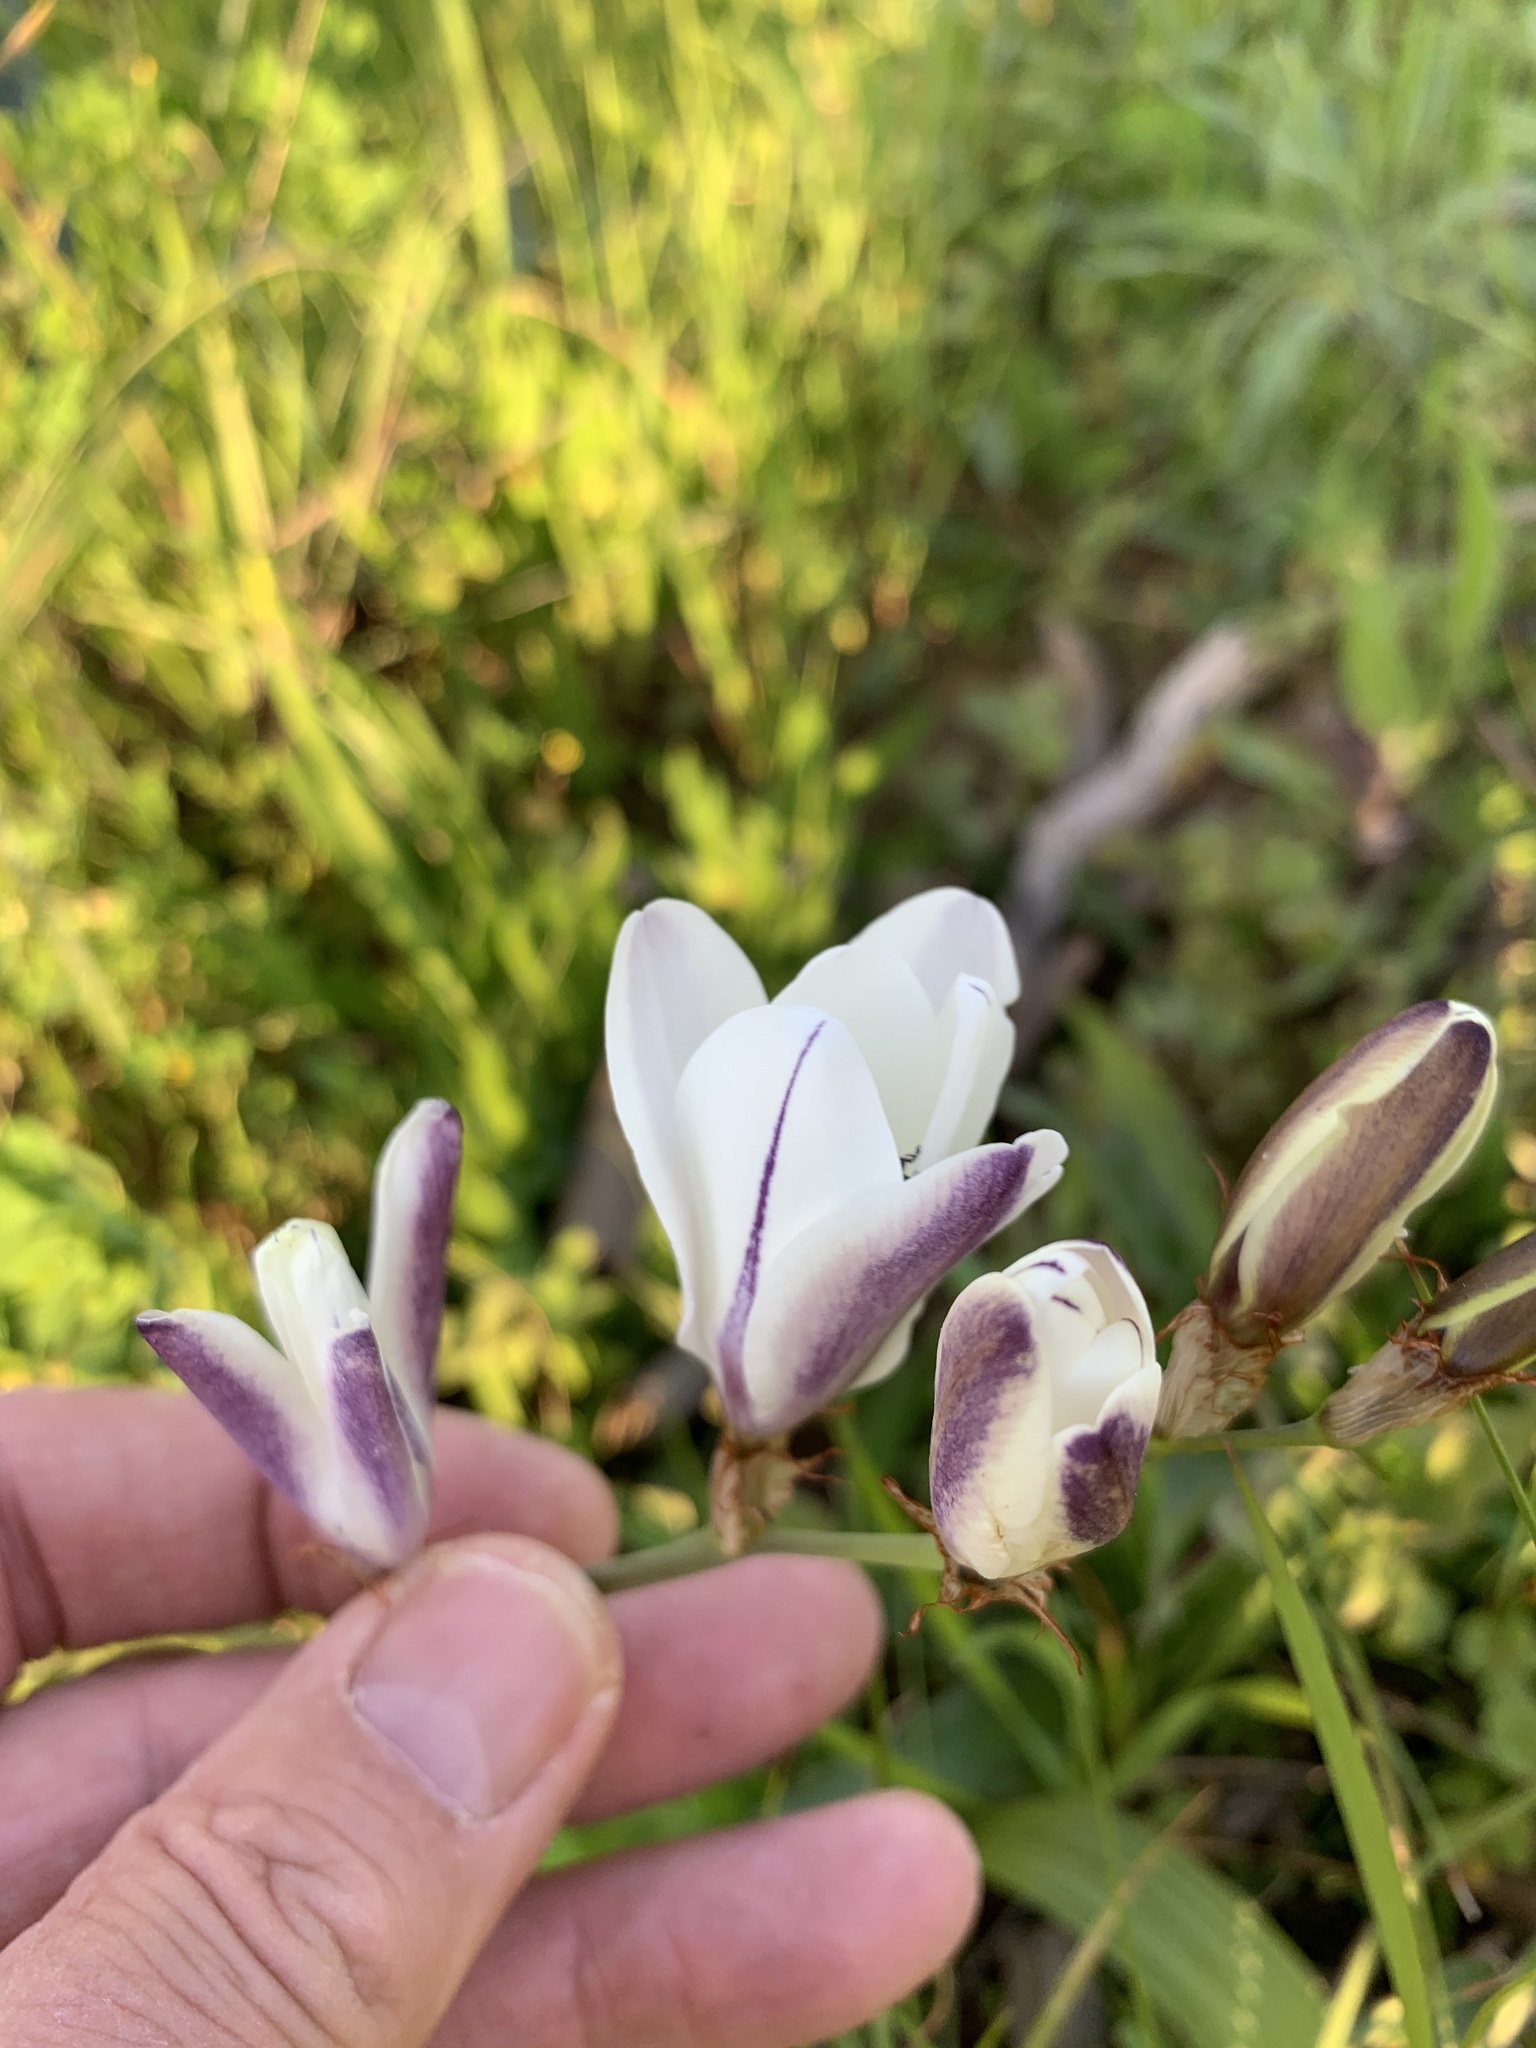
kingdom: Plantae
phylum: Tracheophyta
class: Liliopsida
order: Asparagales
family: Iridaceae
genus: Sparaxis
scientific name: Sparaxis bulbifera
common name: Harlequin-flower
